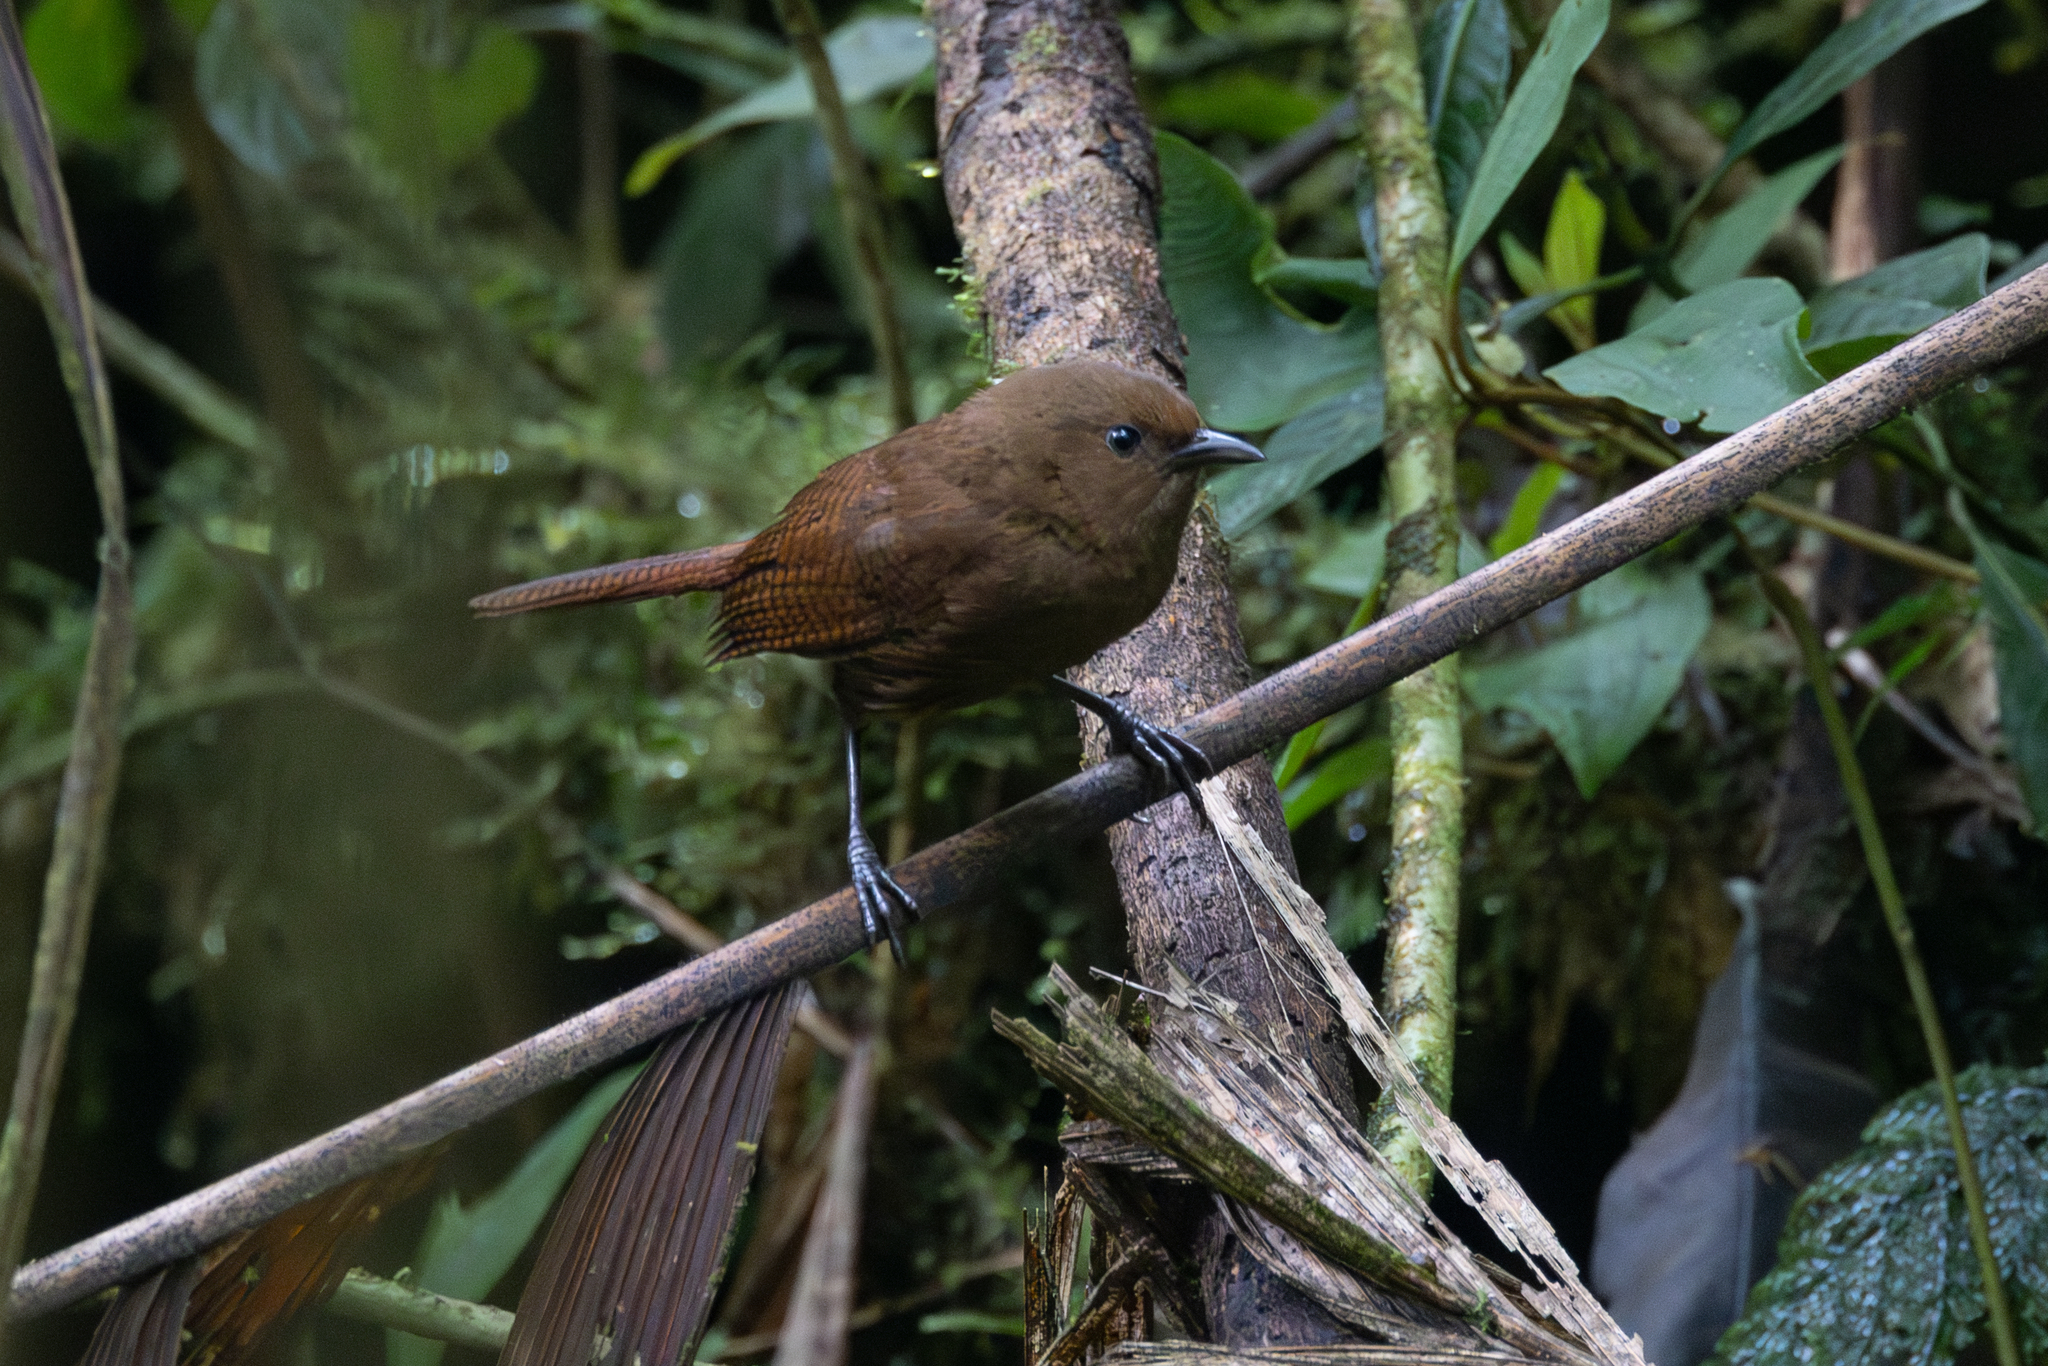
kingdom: Animalia
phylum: Chordata
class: Aves
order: Passeriformes
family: Troglodytidae
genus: Cinnycerthia
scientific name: Cinnycerthia olivascens
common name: Sharpe's wren
